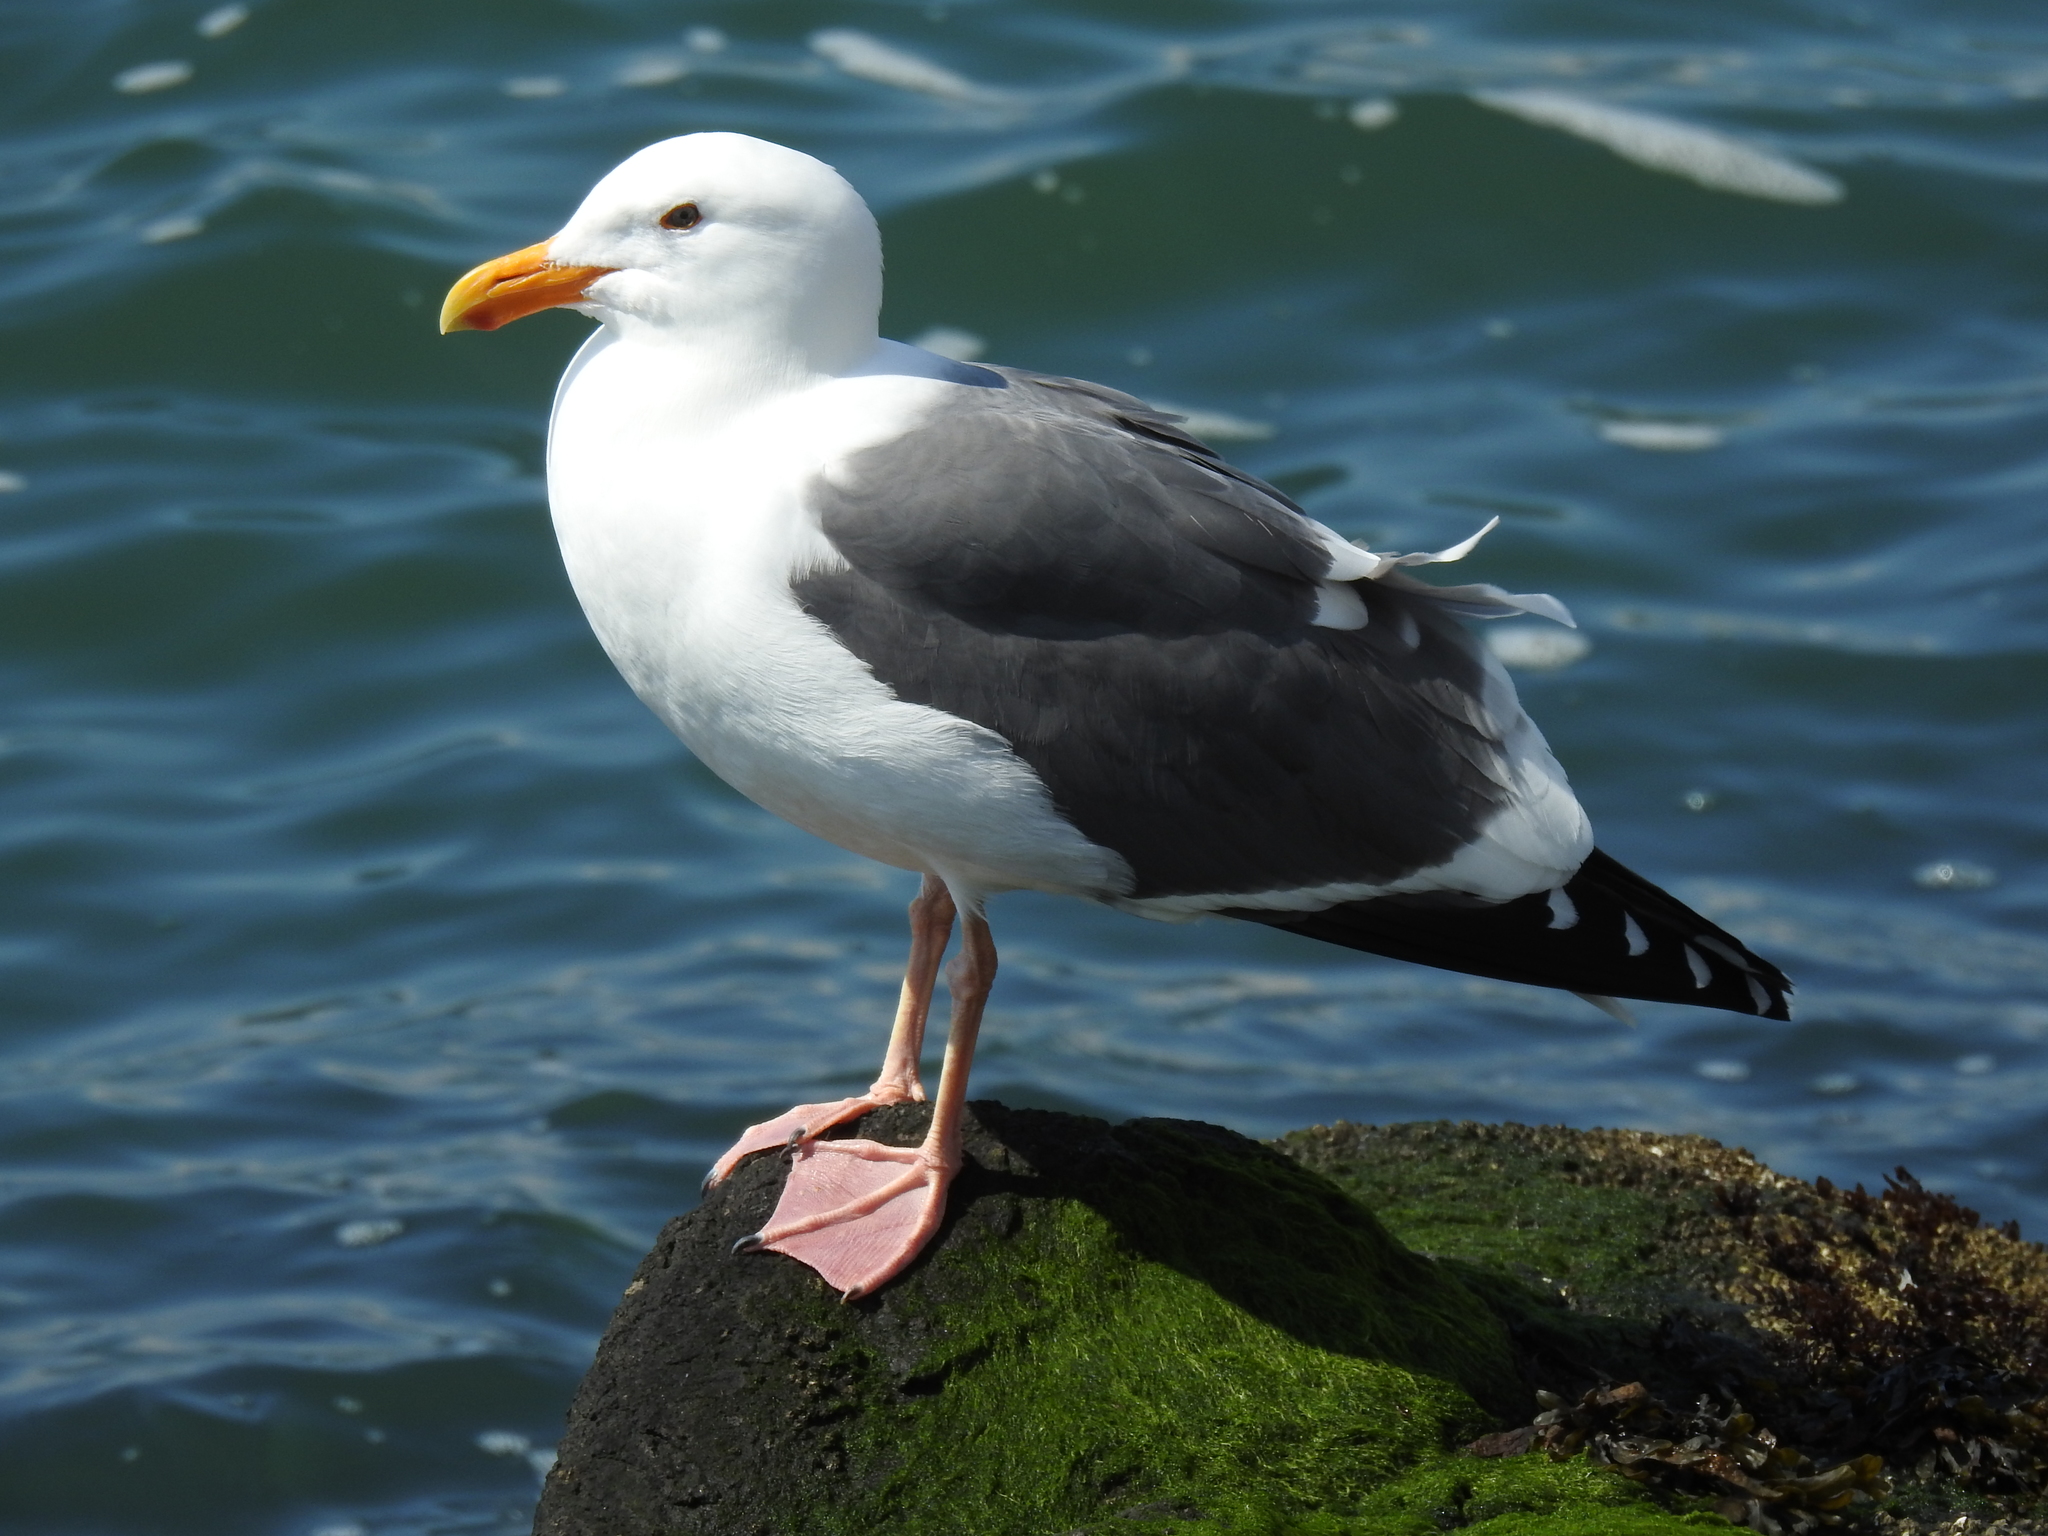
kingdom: Animalia
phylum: Chordata
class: Aves
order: Charadriiformes
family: Laridae
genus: Larus
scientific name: Larus occidentalis
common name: Western gull
